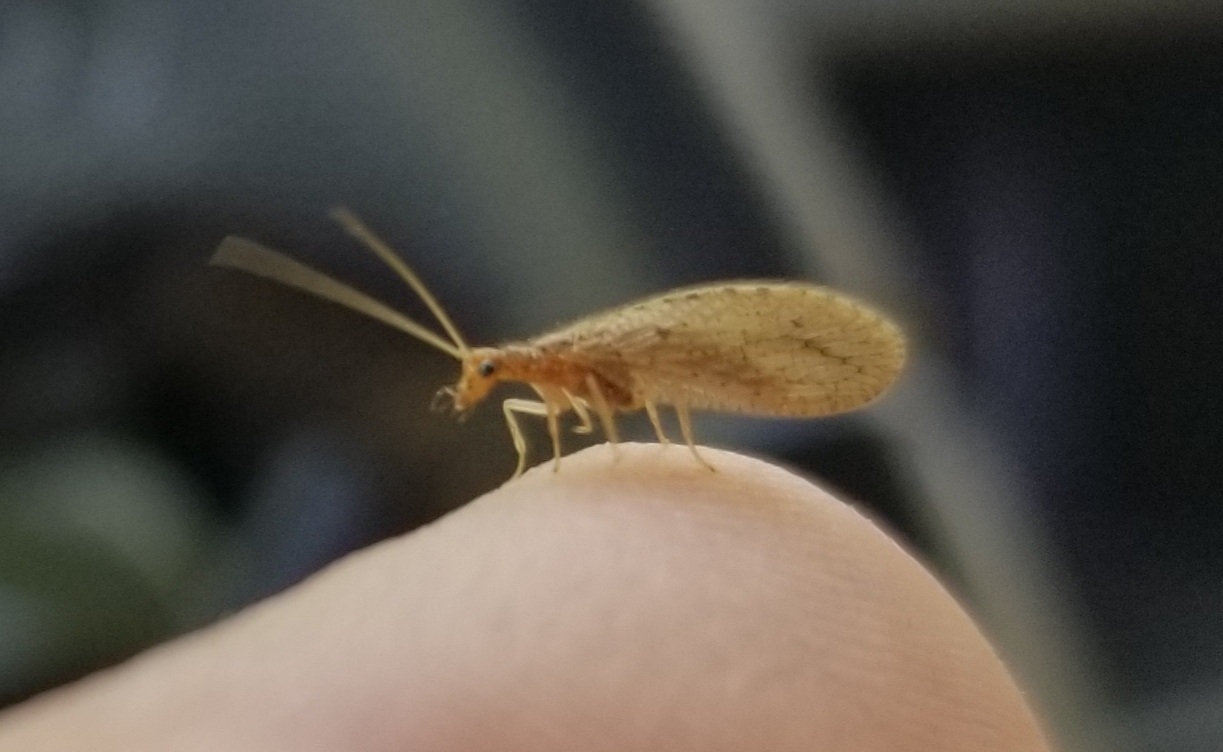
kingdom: Animalia
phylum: Arthropoda
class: Insecta
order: Neuroptera
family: Hemerobiidae
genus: Micromus
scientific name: Micromus subanticus
